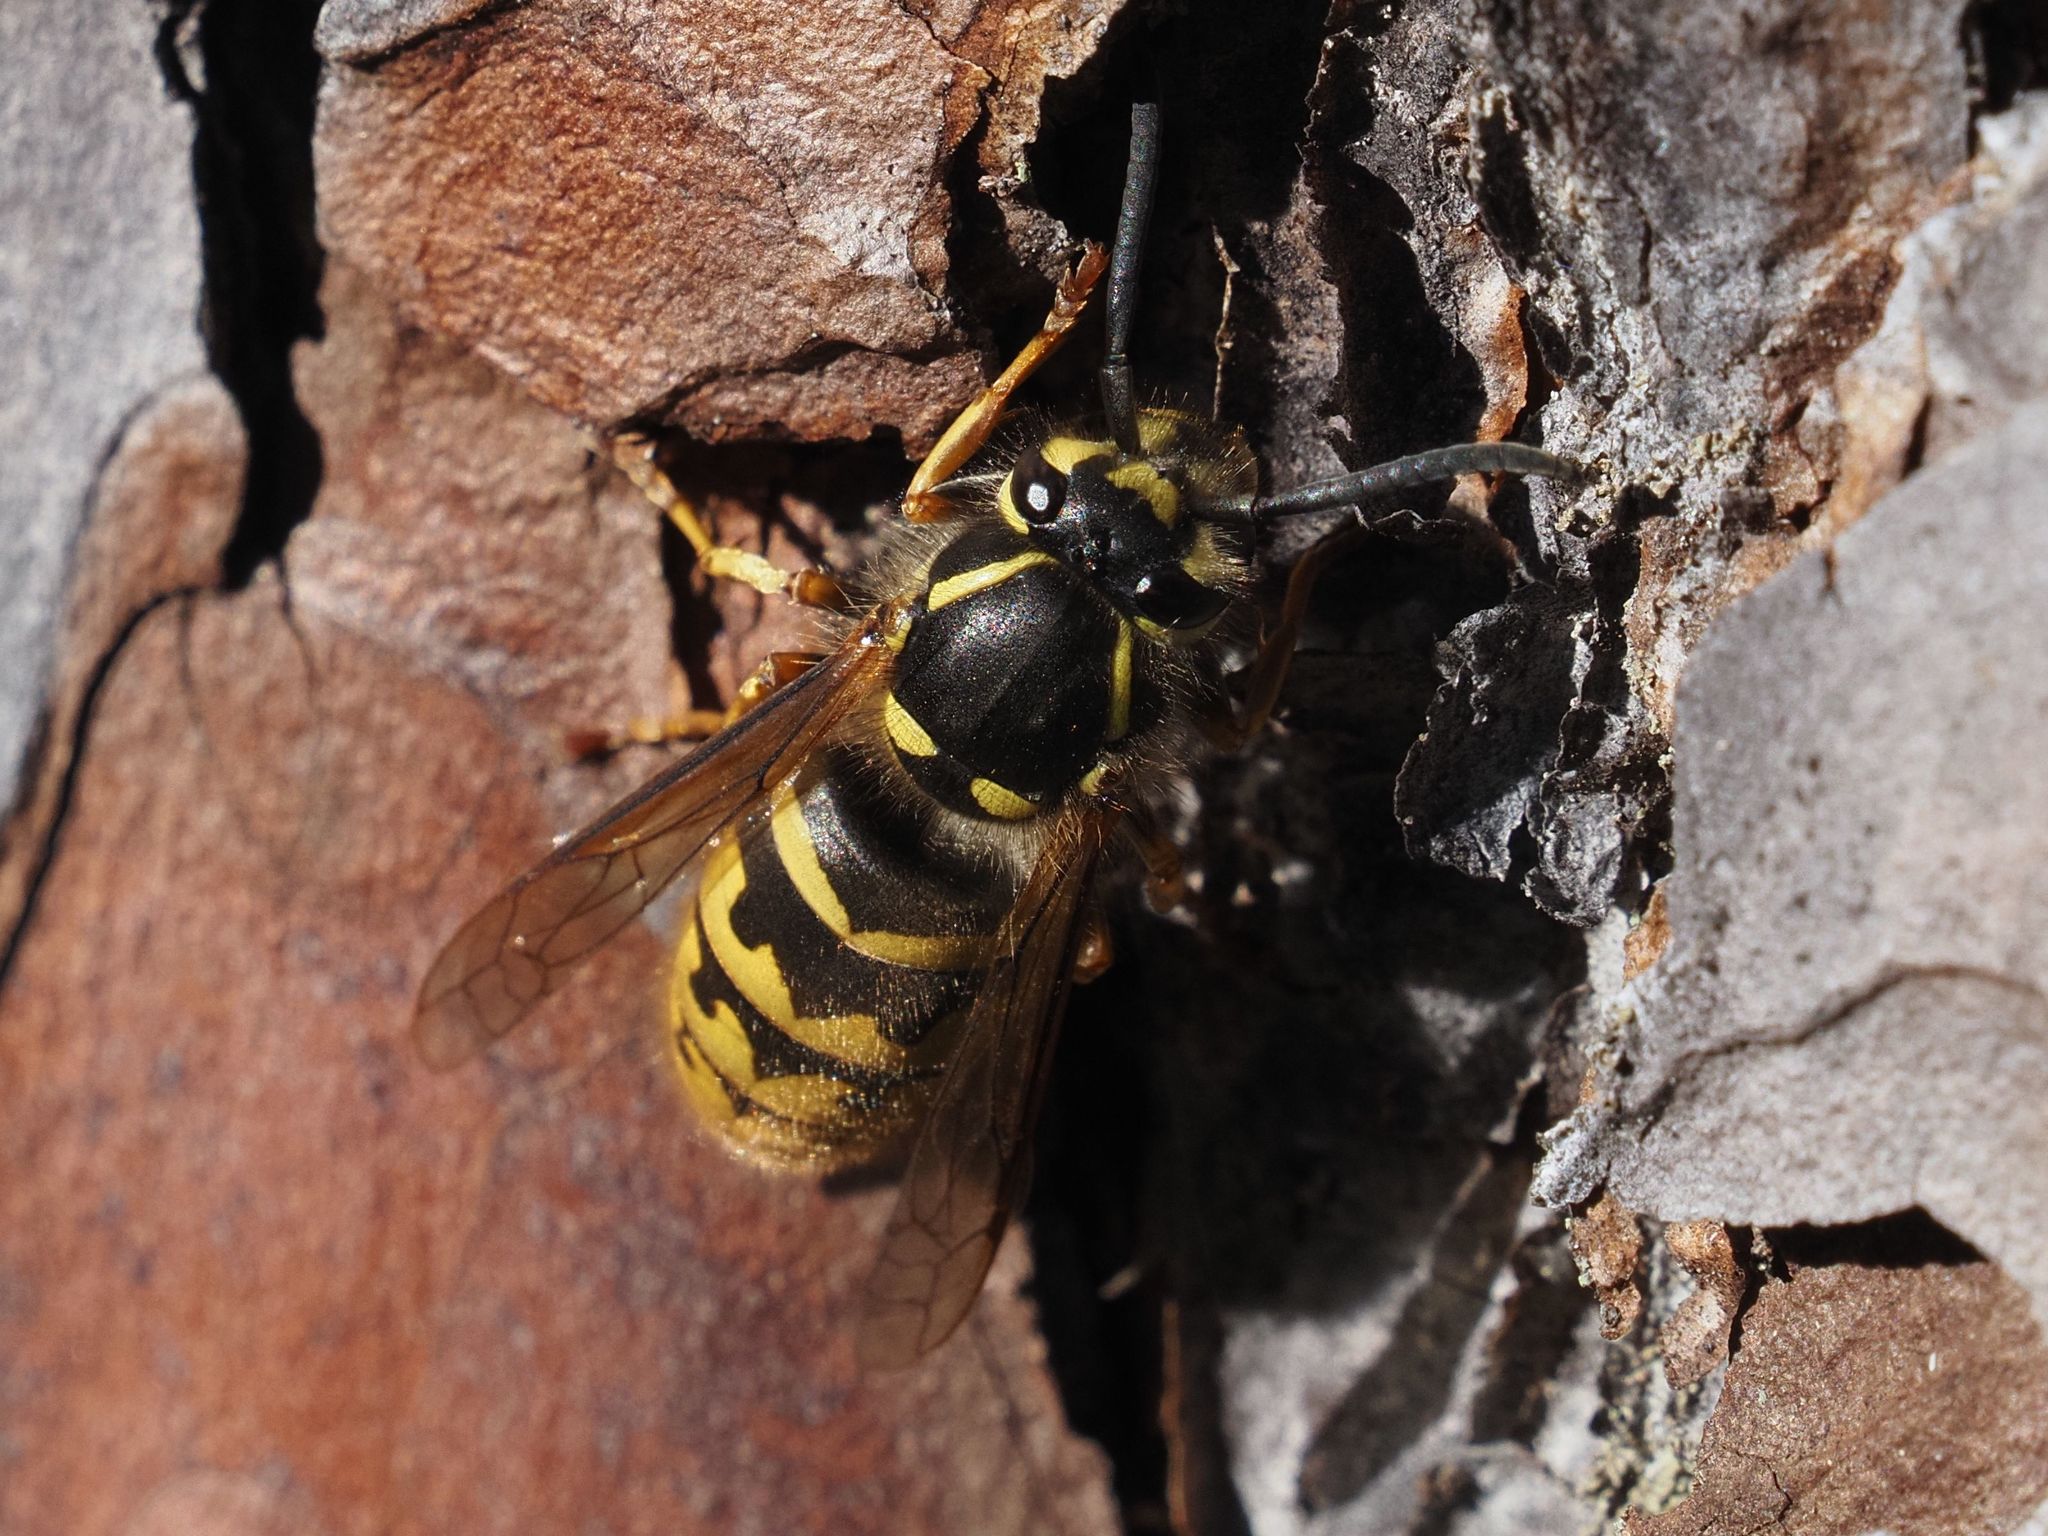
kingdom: Animalia
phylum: Arthropoda
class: Insecta
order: Hymenoptera
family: Vespidae
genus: Vespula
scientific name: Vespula vulgaris
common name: Common wasp
